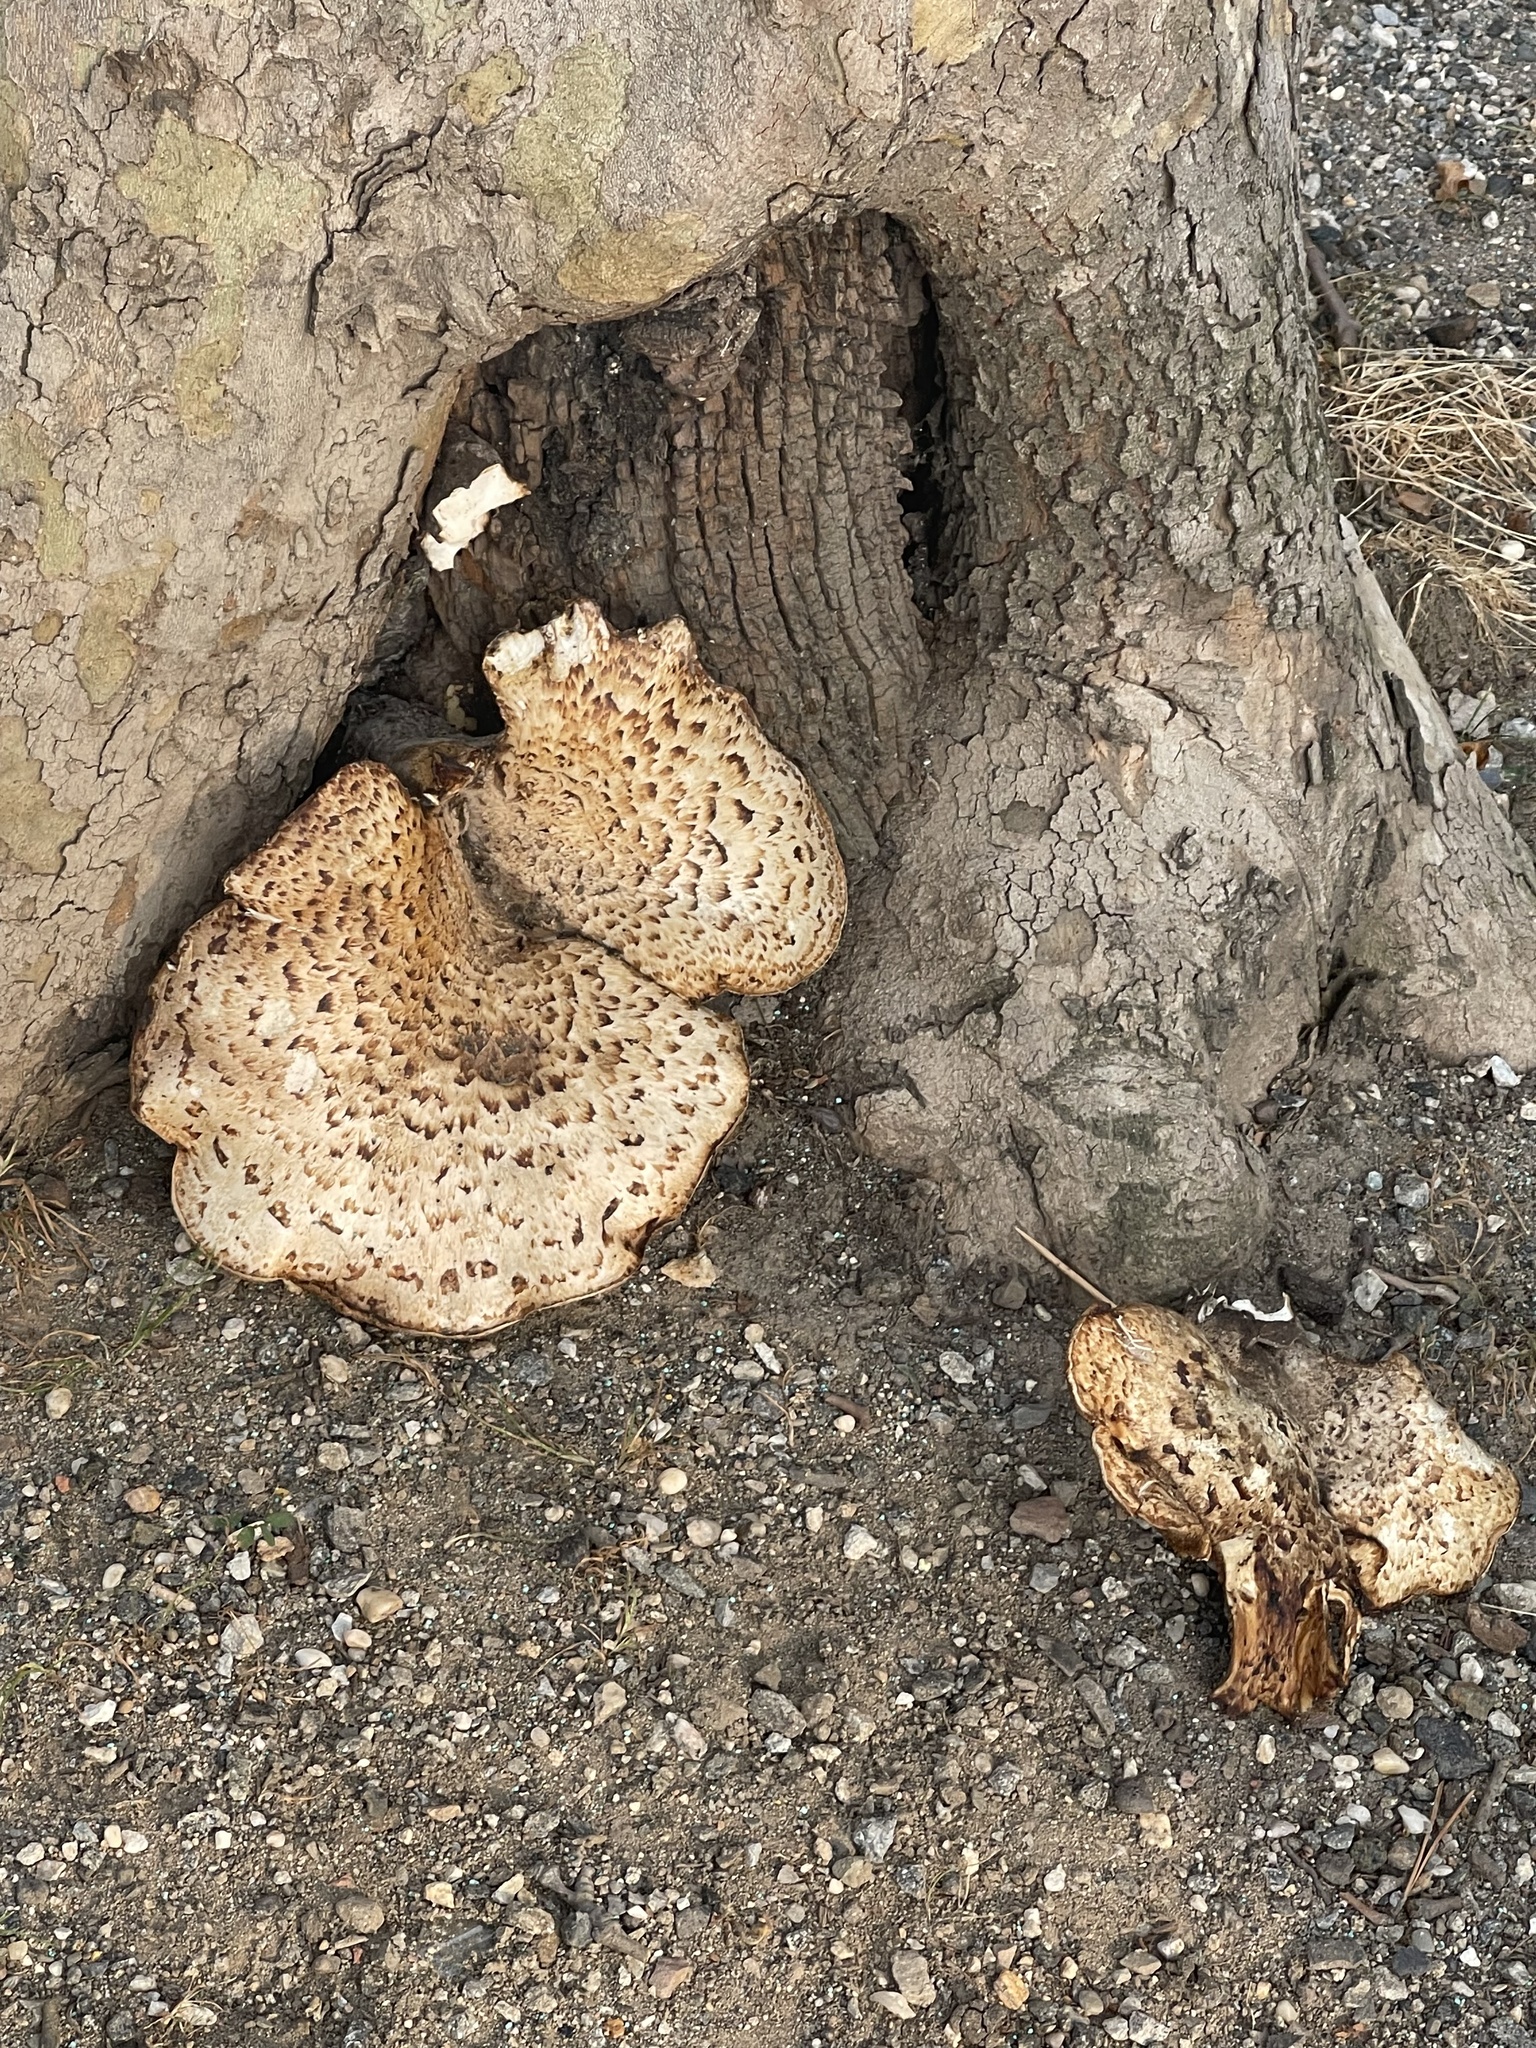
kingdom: Fungi
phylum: Basidiomycota
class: Agaricomycetes
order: Polyporales
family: Polyporaceae
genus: Cerioporus
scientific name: Cerioporus squamosus
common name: Dryad's saddle
